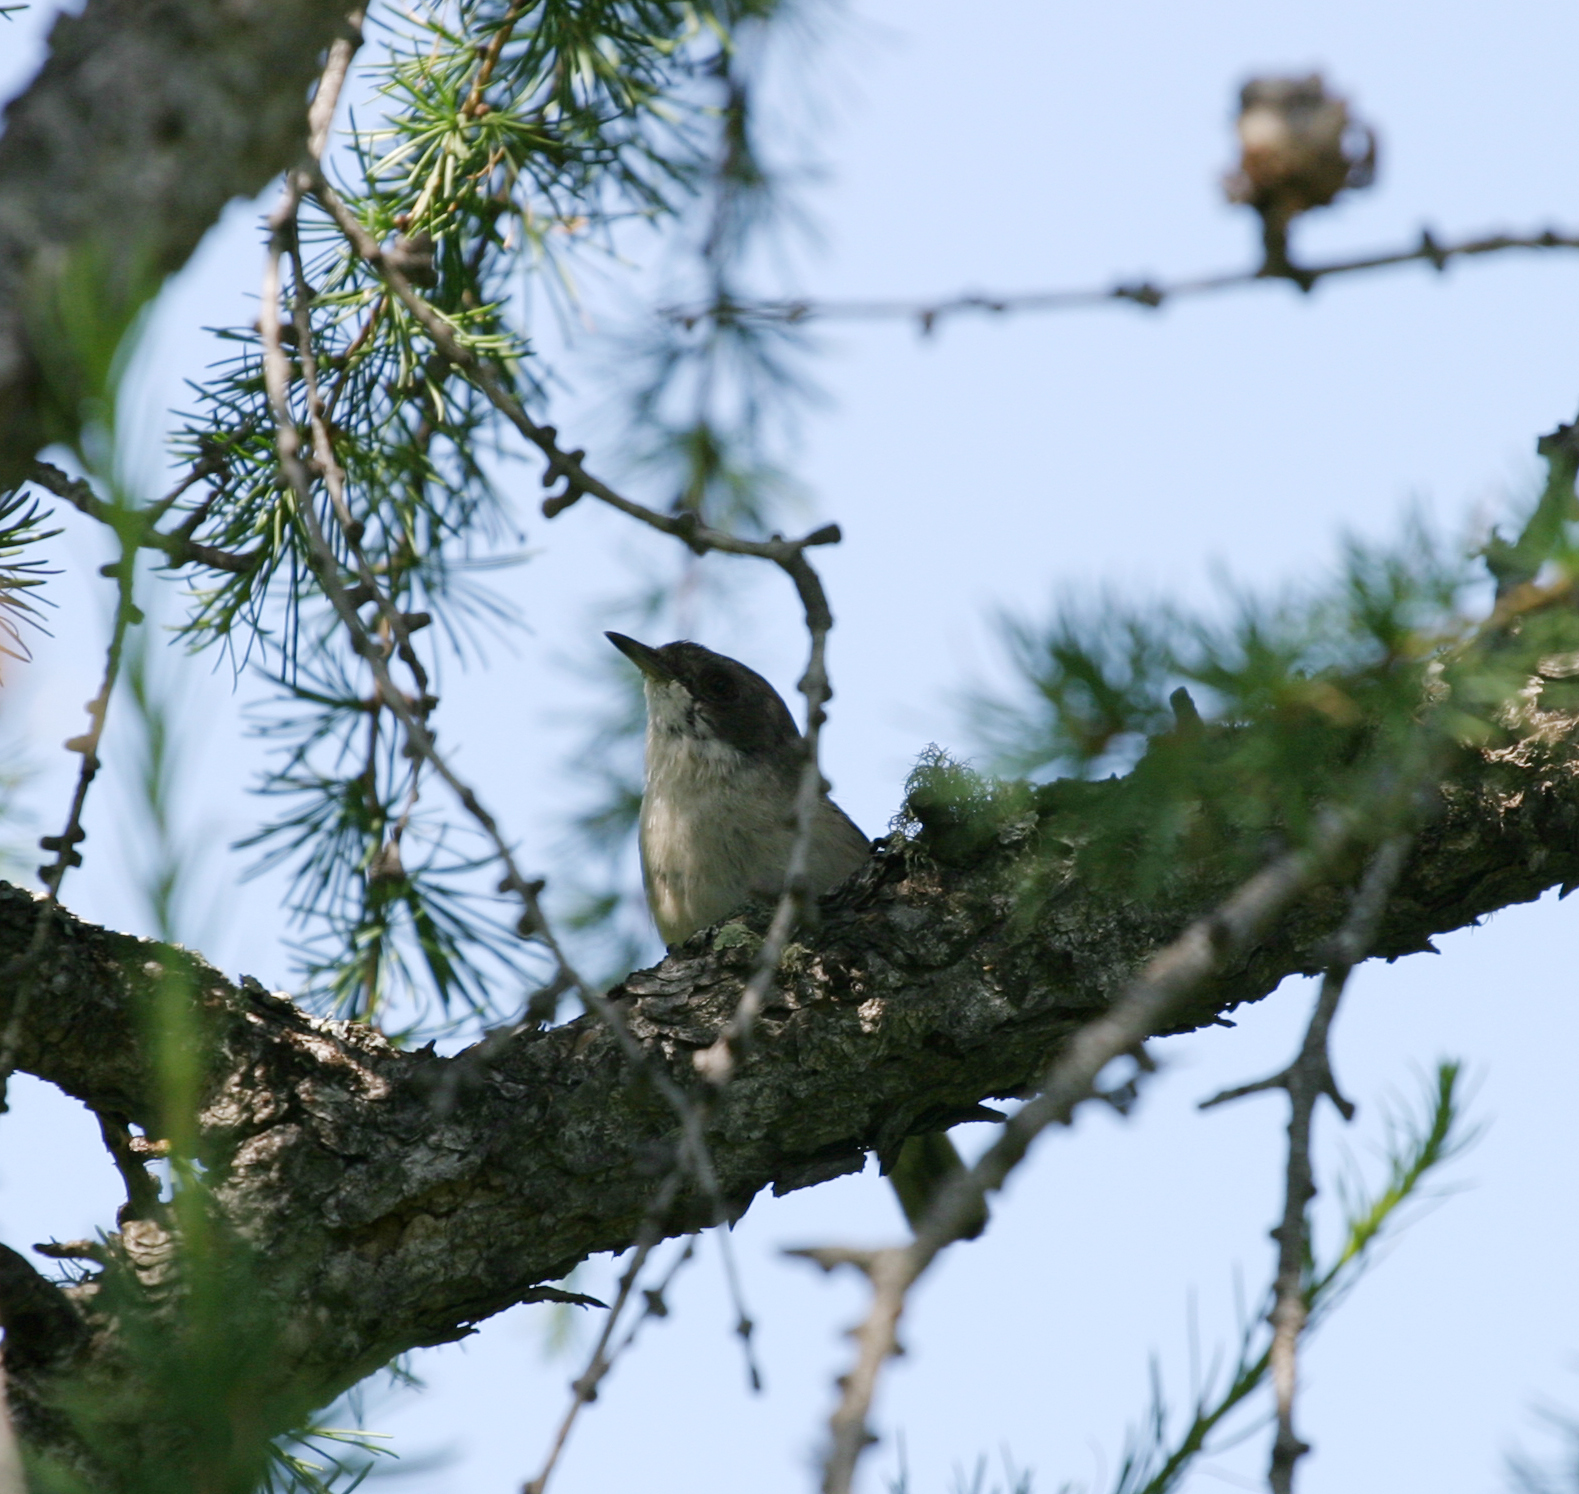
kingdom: Animalia
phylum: Chordata
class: Aves
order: Passeriformes
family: Sylviidae
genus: Sylvia
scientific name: Sylvia curruca
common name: Lesser whitethroat
